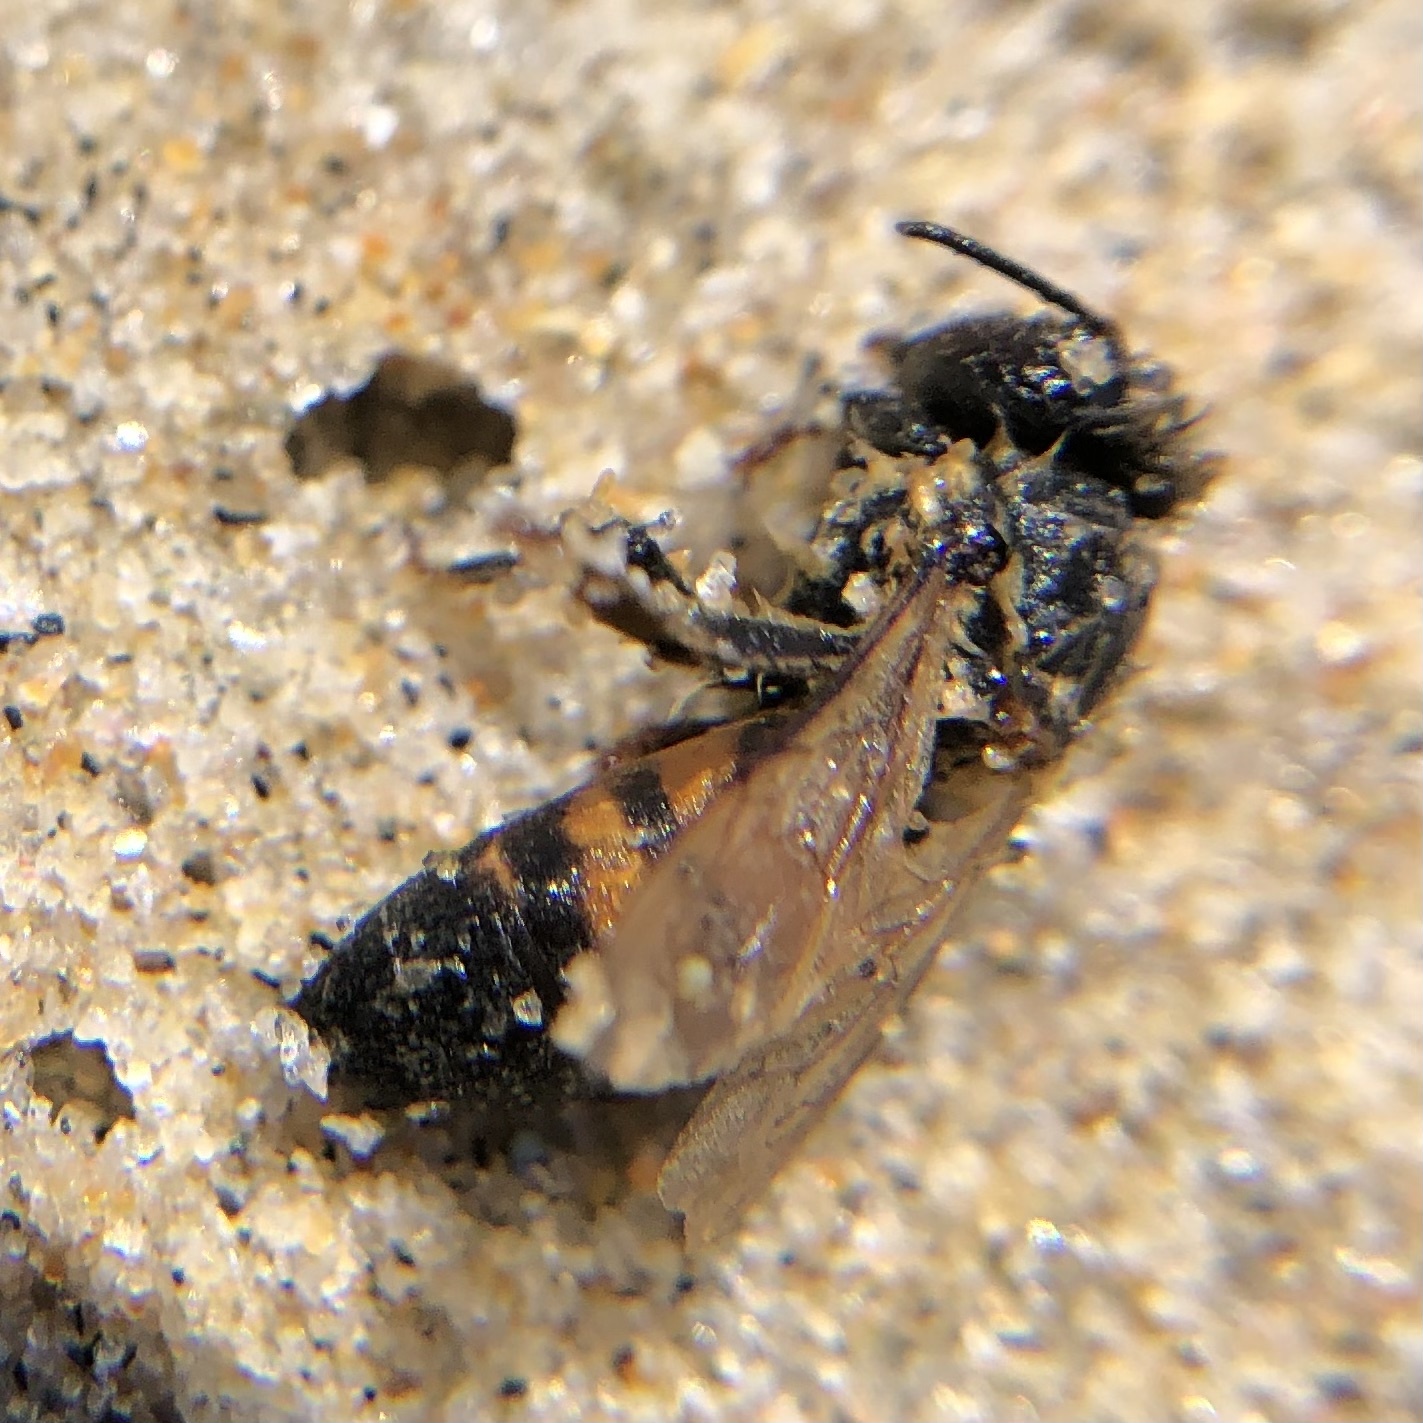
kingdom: Animalia
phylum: Arthropoda
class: Insecta
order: Hymenoptera
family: Apidae
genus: Apis
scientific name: Apis mellifera
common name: Honey bee
